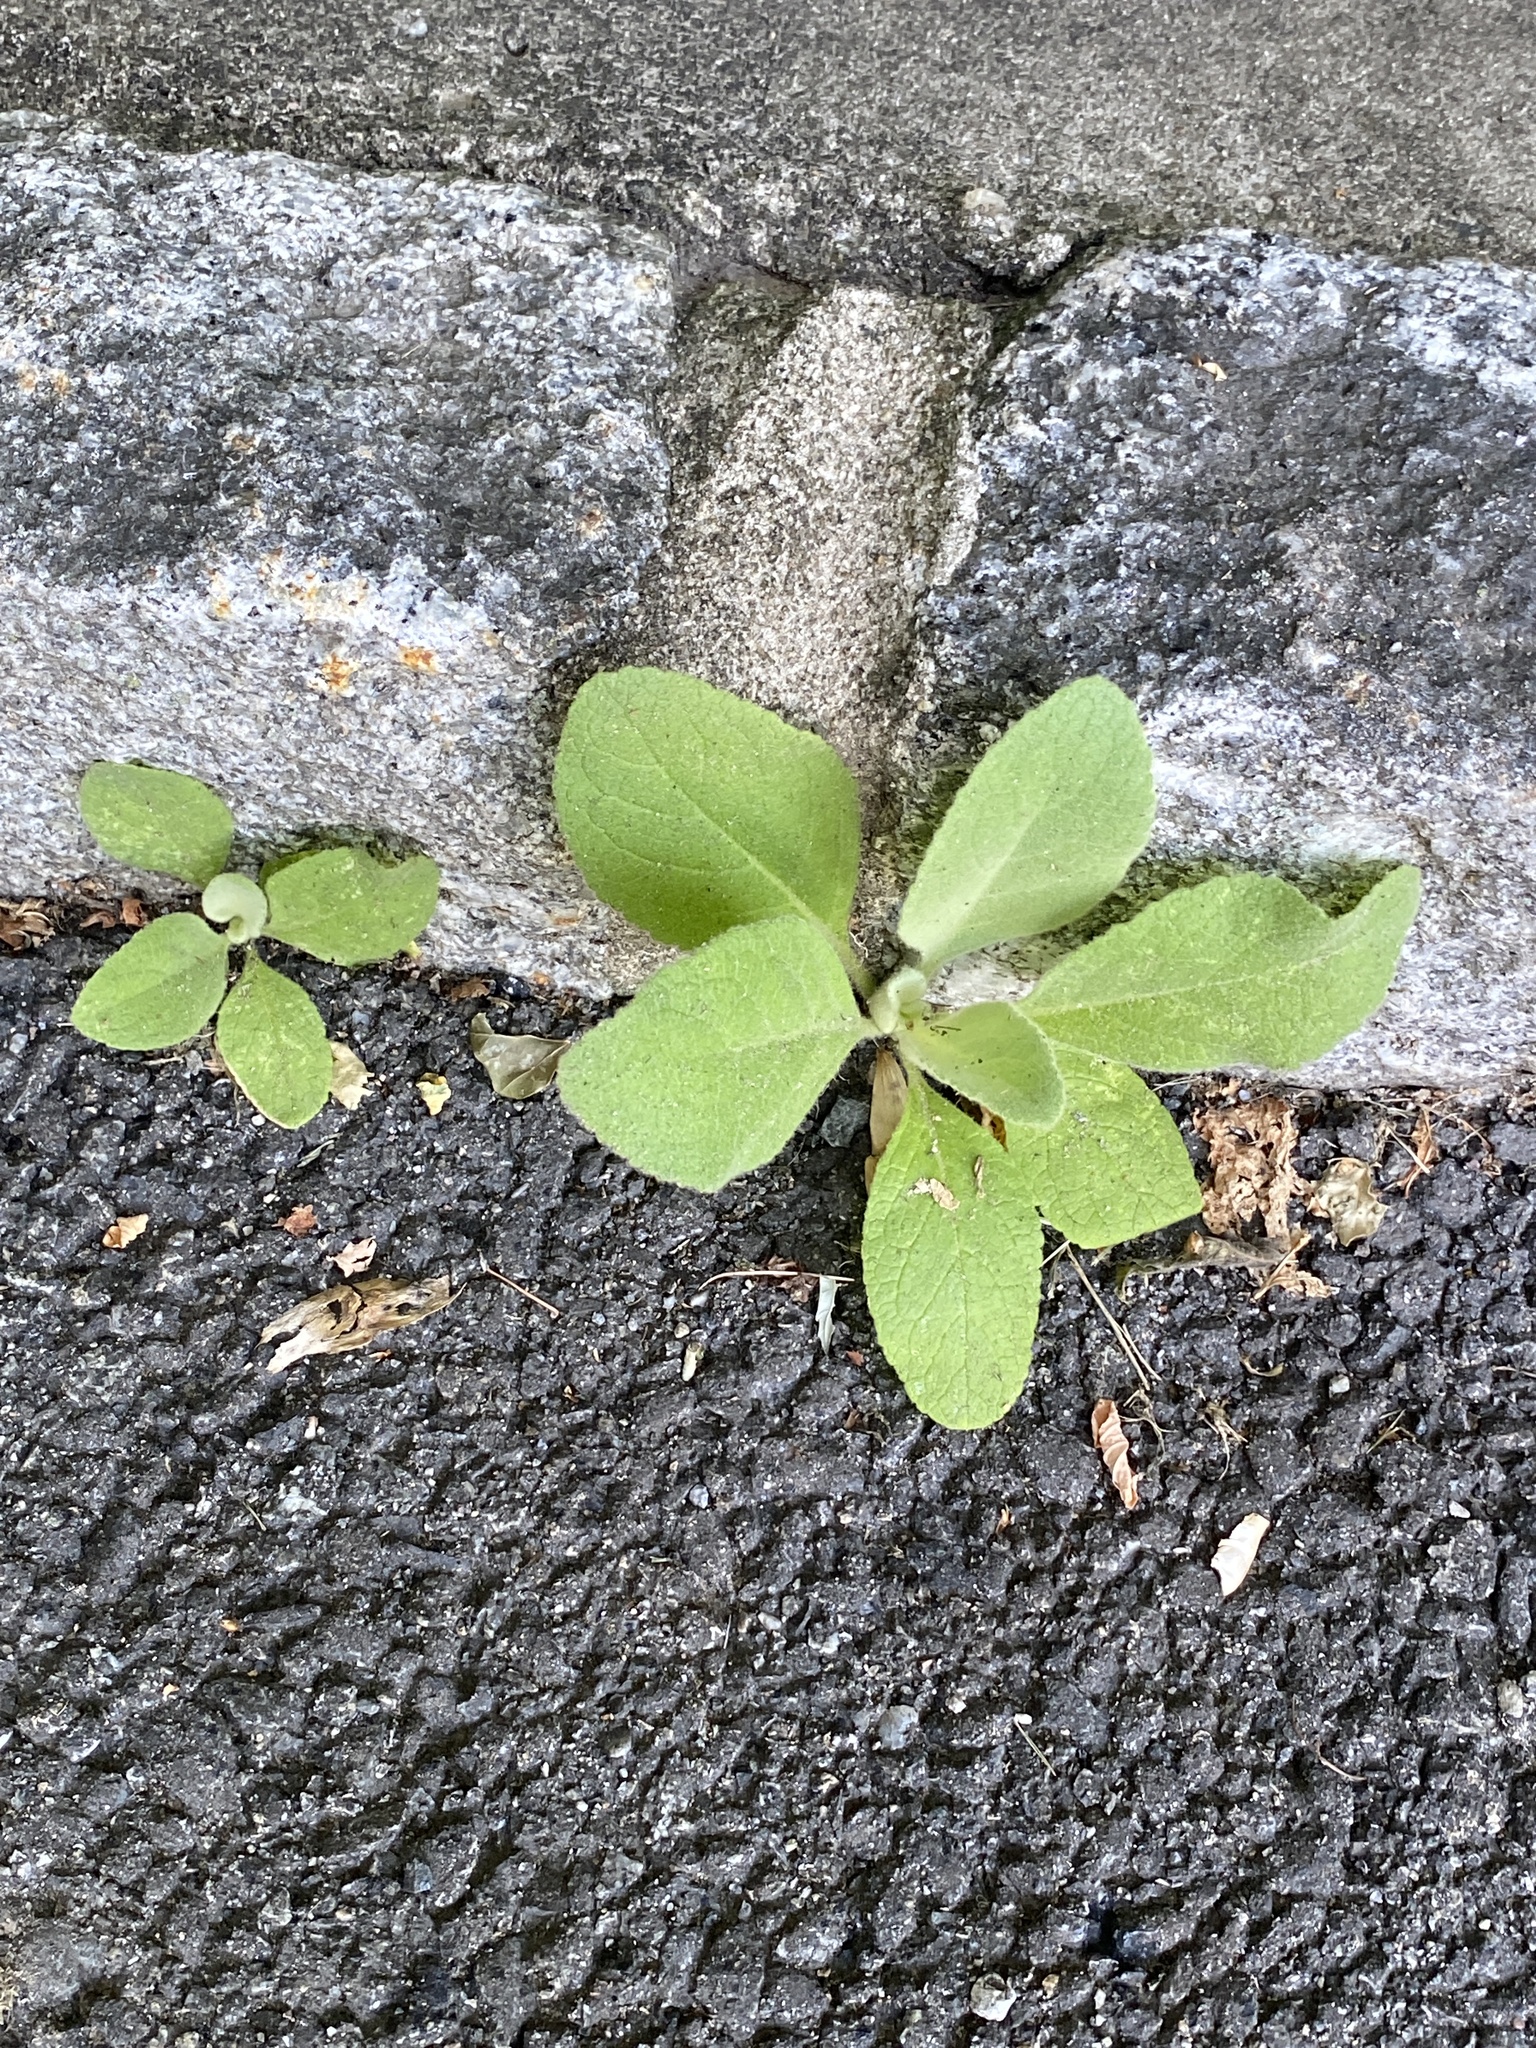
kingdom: Plantae
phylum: Tracheophyta
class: Magnoliopsida
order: Lamiales
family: Scrophulariaceae
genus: Verbascum
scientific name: Verbascum thapsus
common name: Common mullein
